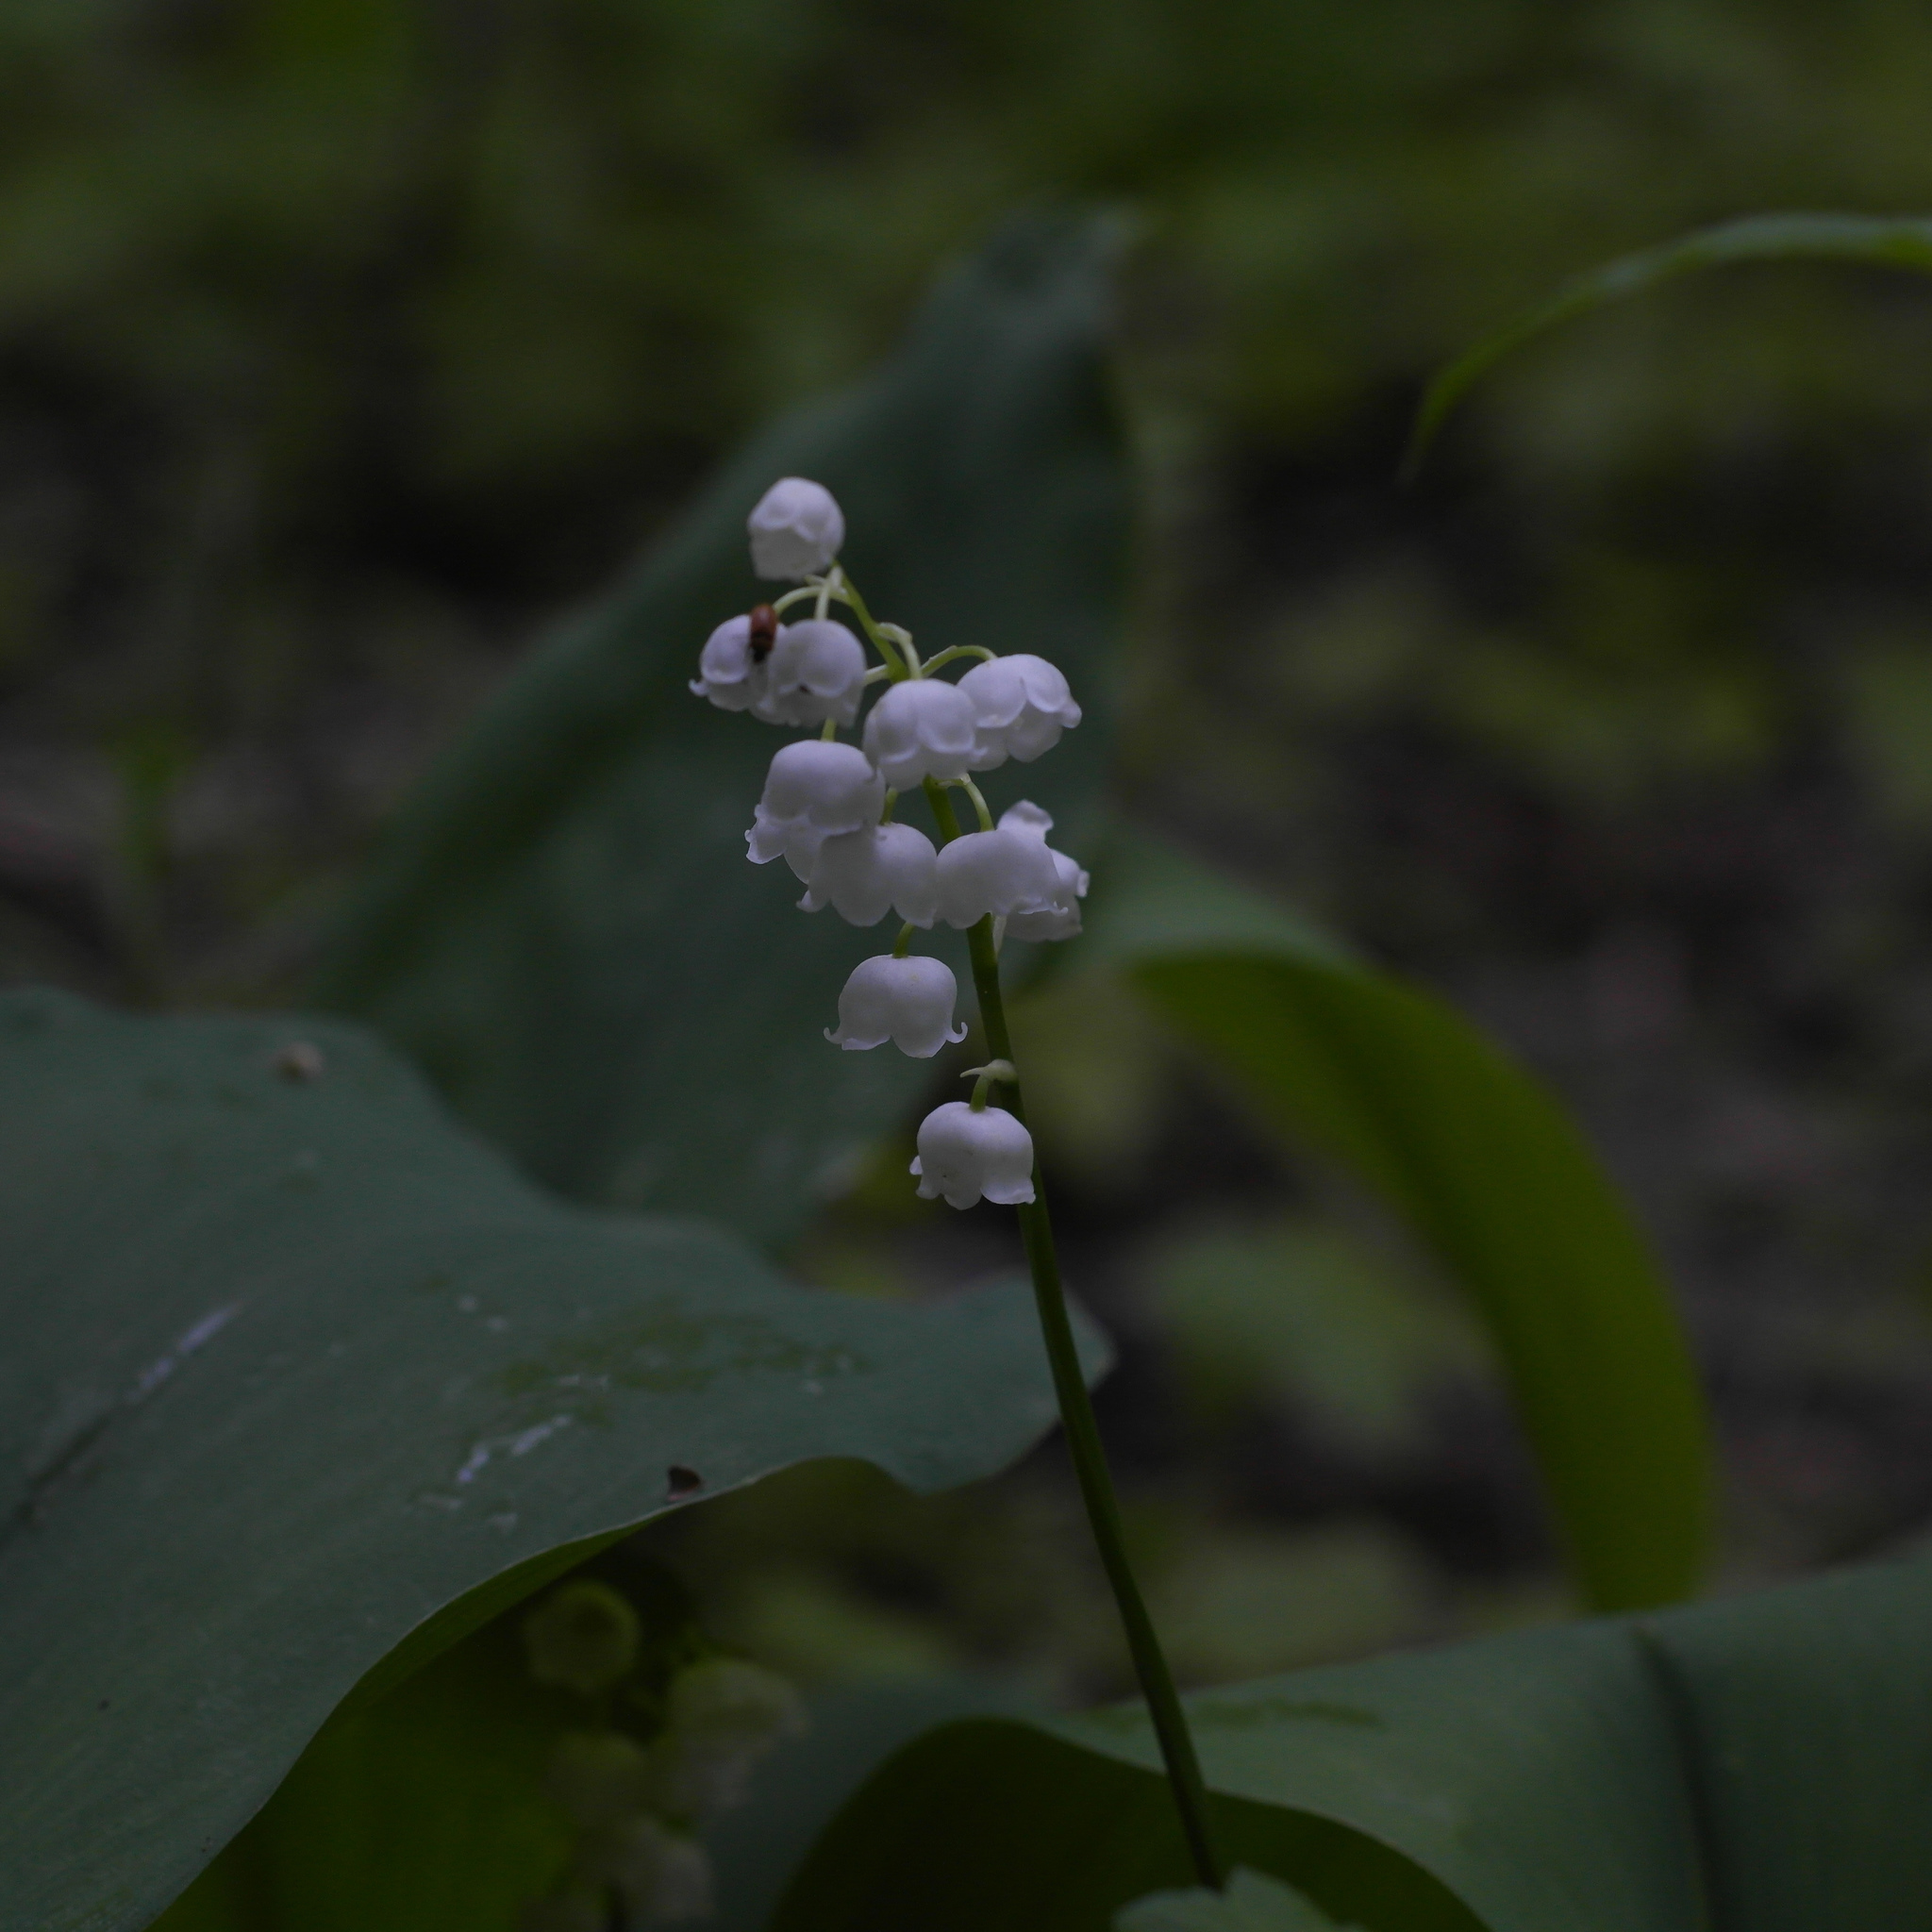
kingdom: Plantae
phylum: Tracheophyta
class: Liliopsida
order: Asparagales
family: Asparagaceae
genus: Convallaria
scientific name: Convallaria majalis
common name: Lily-of-the-valley
